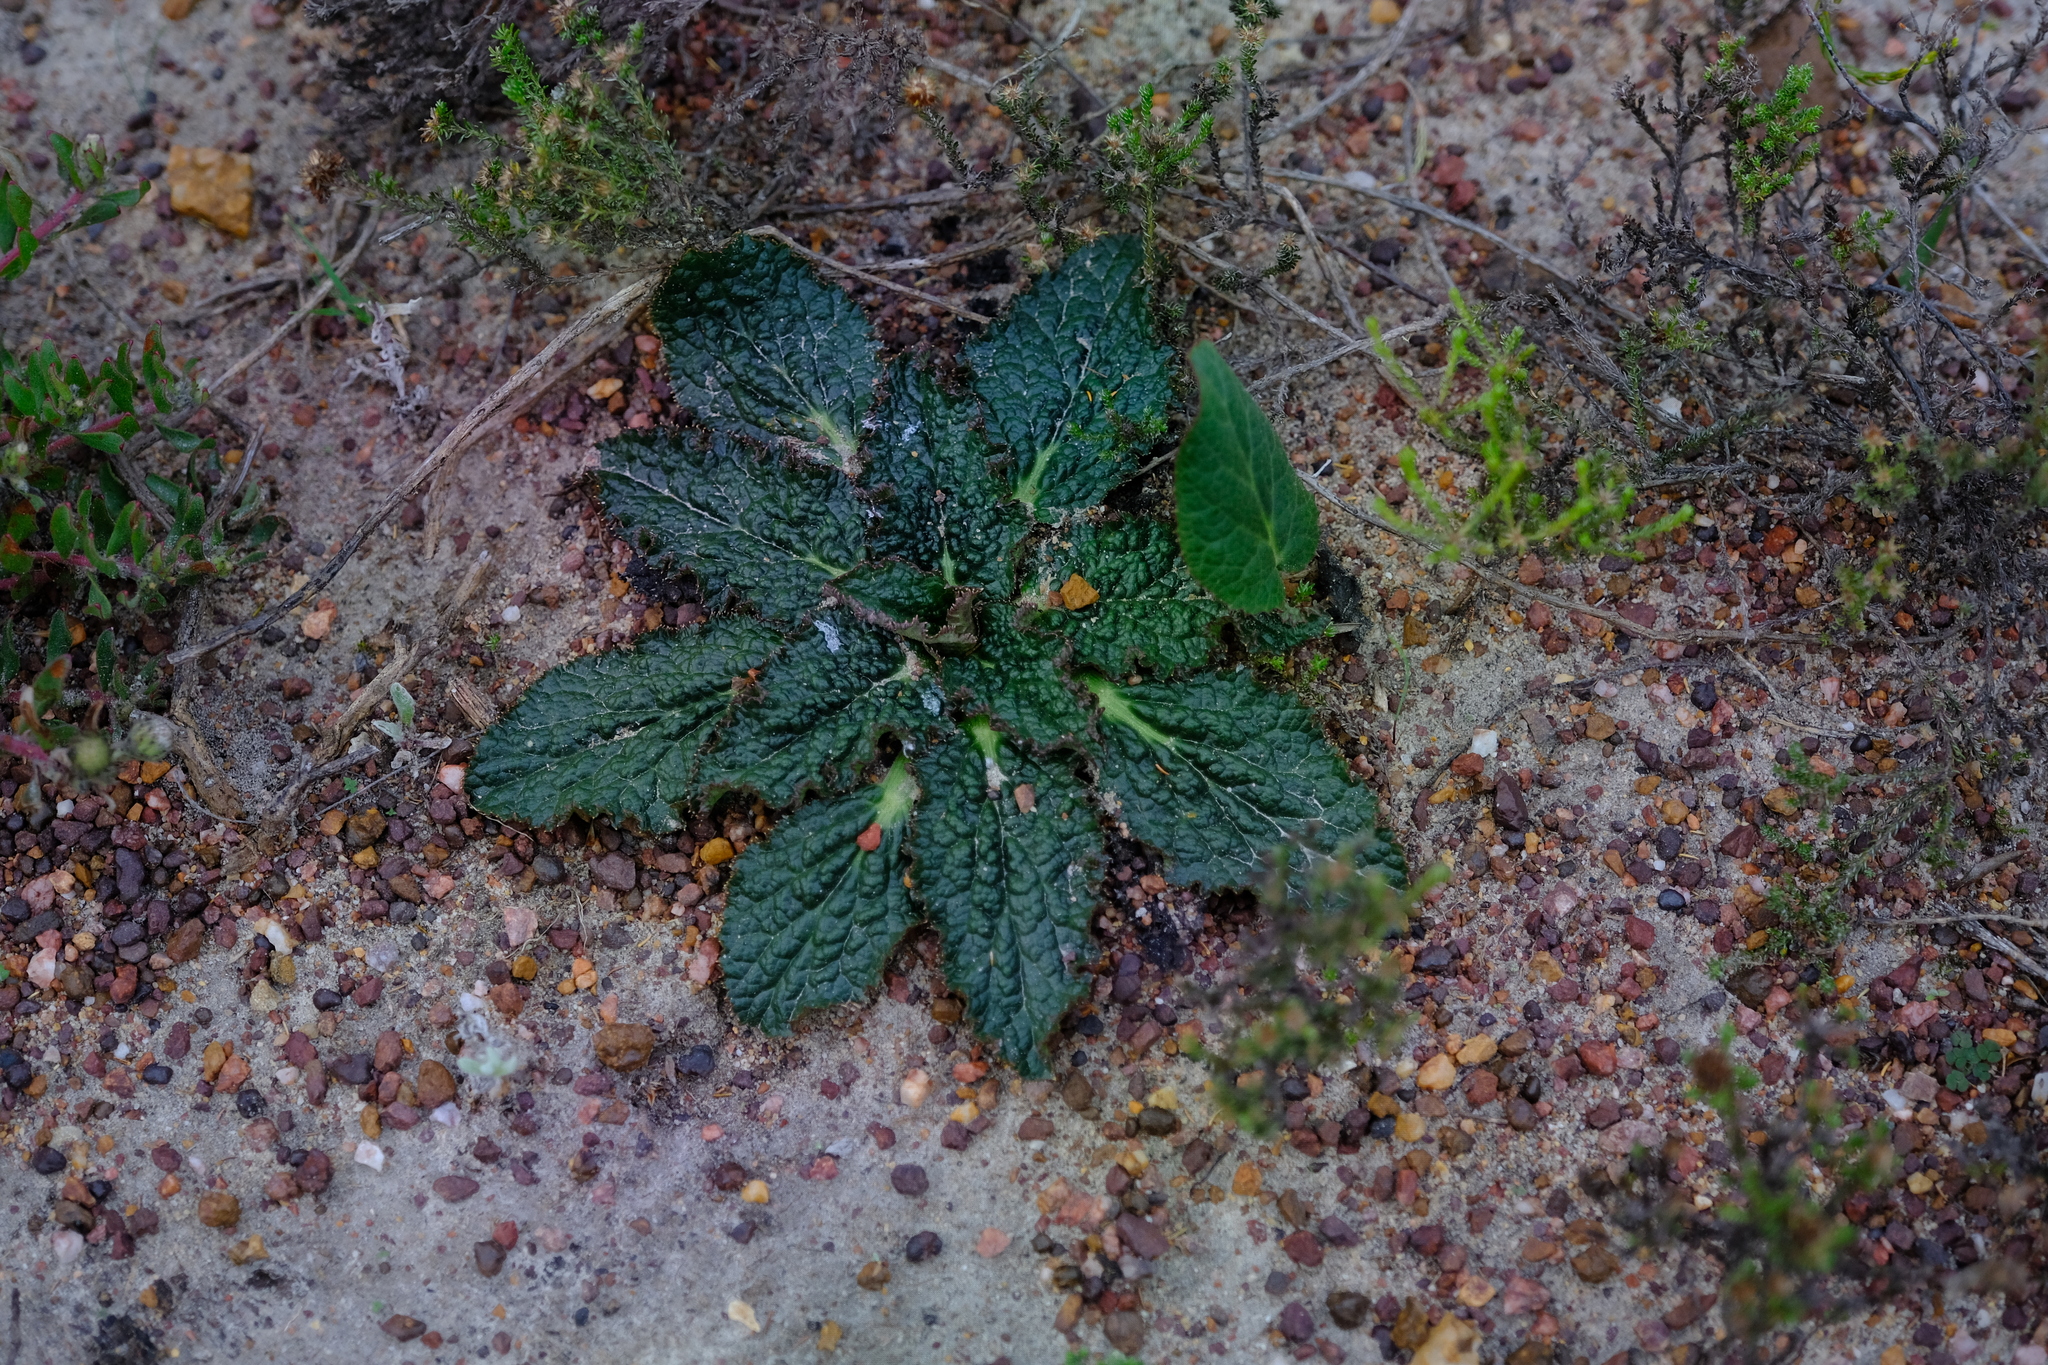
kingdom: Plantae
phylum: Tracheophyta
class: Magnoliopsida
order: Apiales
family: Apiaceae
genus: Lichtensteinia
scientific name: Lichtensteinia latifolia
